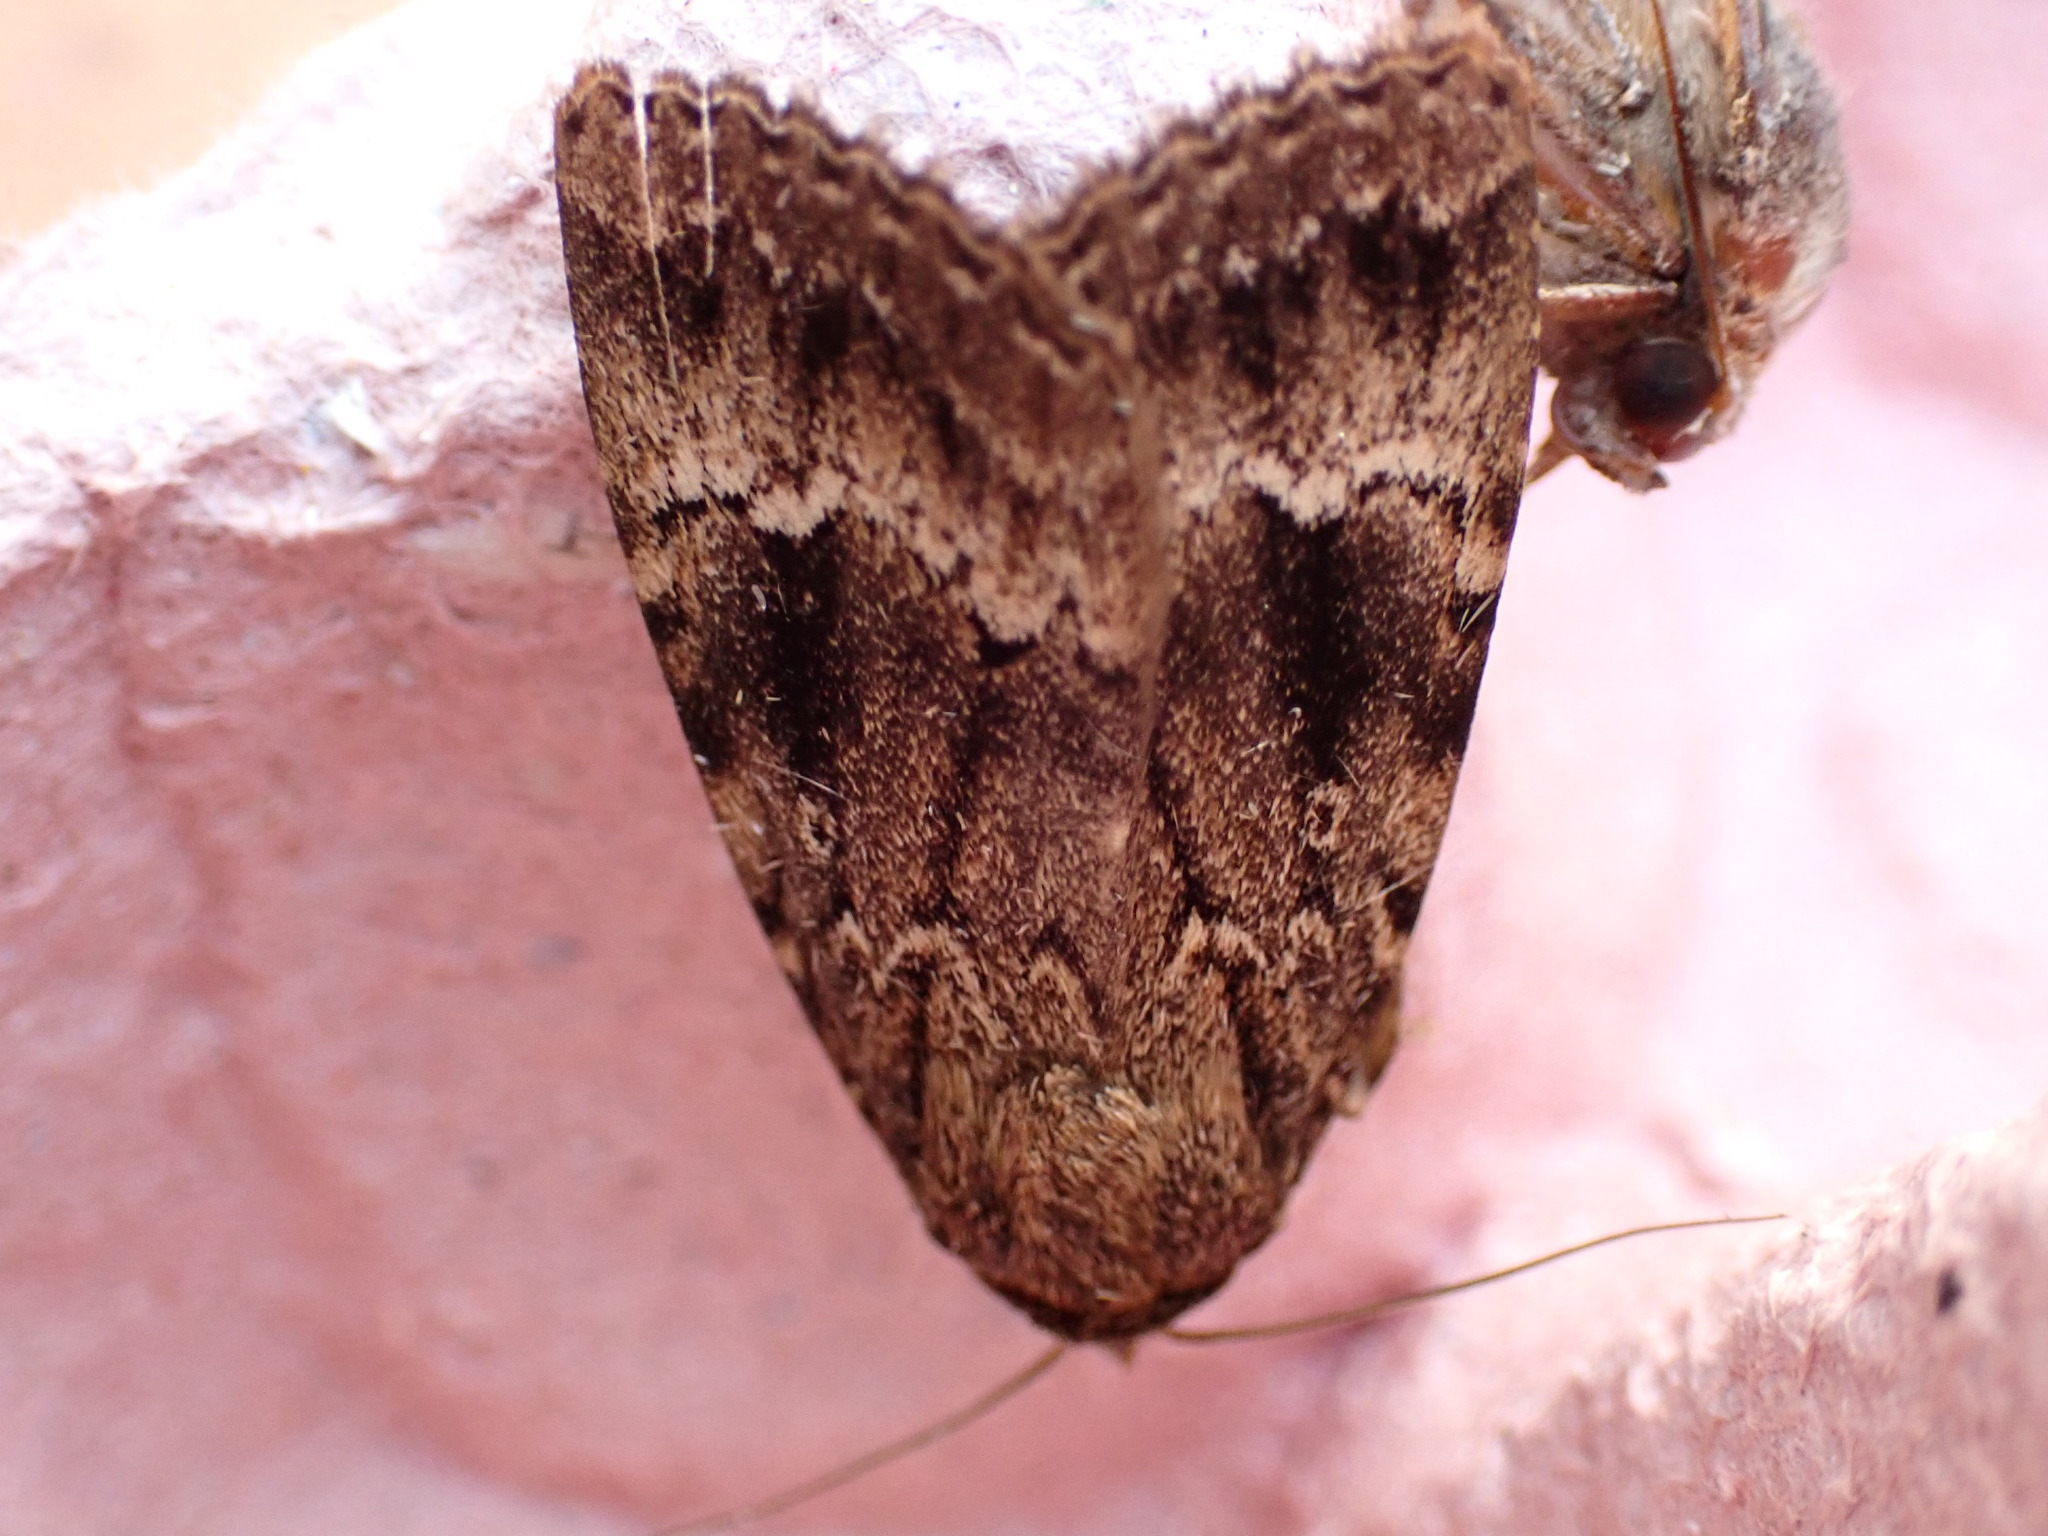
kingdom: Animalia
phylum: Arthropoda
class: Insecta
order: Lepidoptera
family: Noctuidae
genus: Amphipyra
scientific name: Amphipyra
